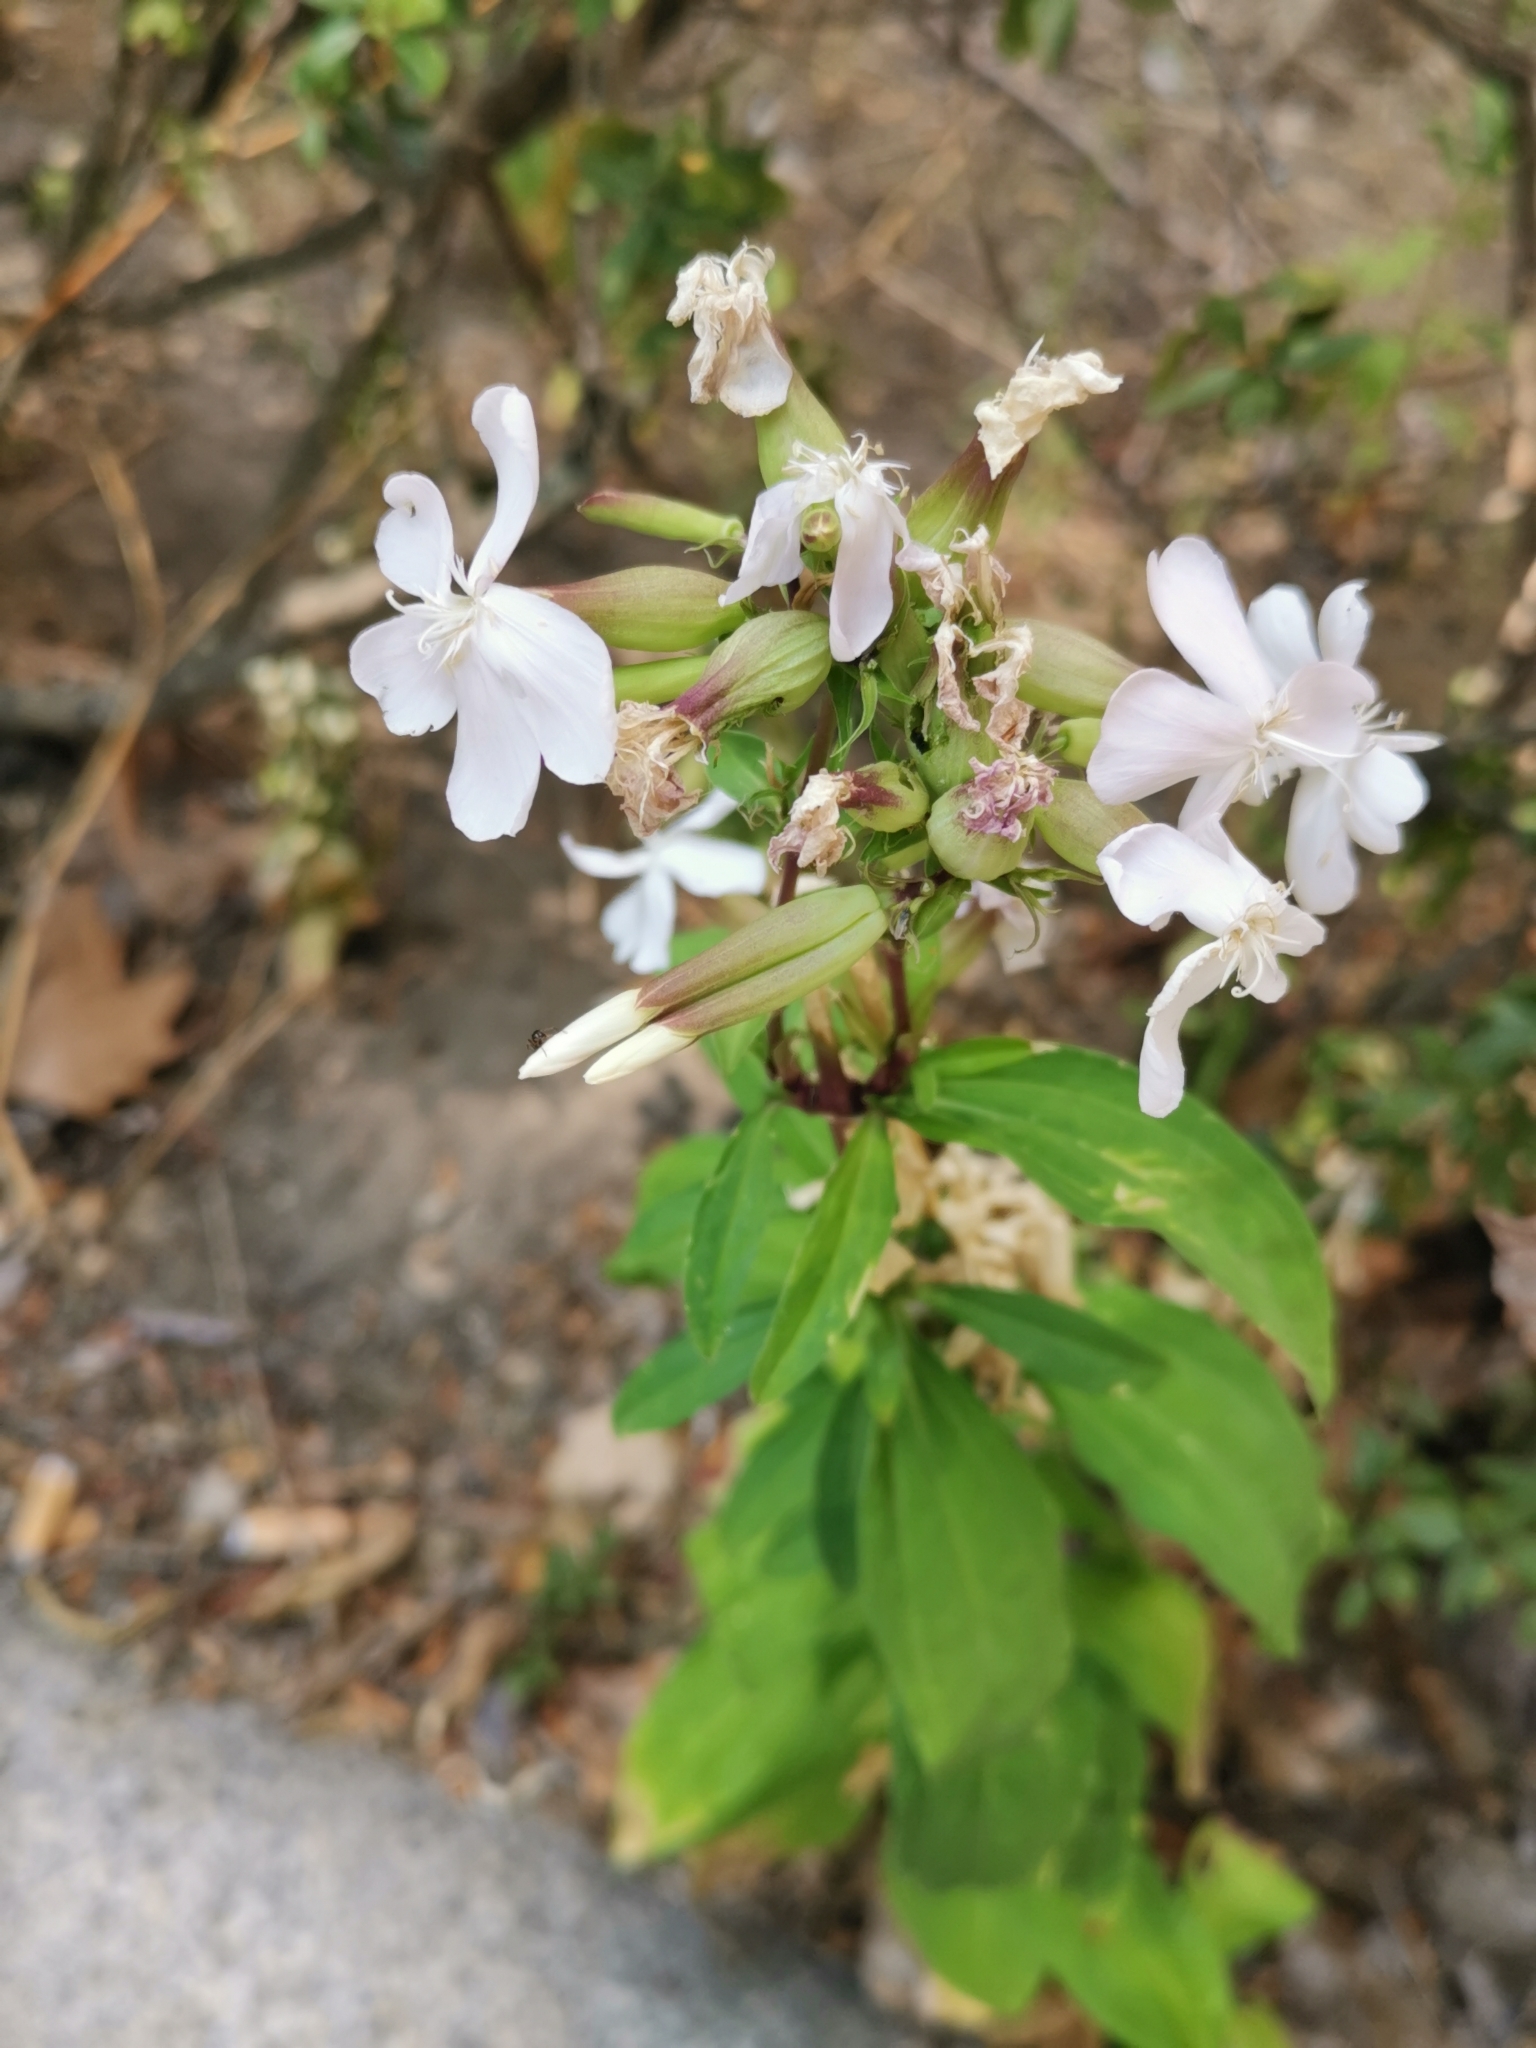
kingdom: Plantae
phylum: Tracheophyta
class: Magnoliopsida
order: Caryophyllales
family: Caryophyllaceae
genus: Saponaria
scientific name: Saponaria officinalis
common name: Soapwort
